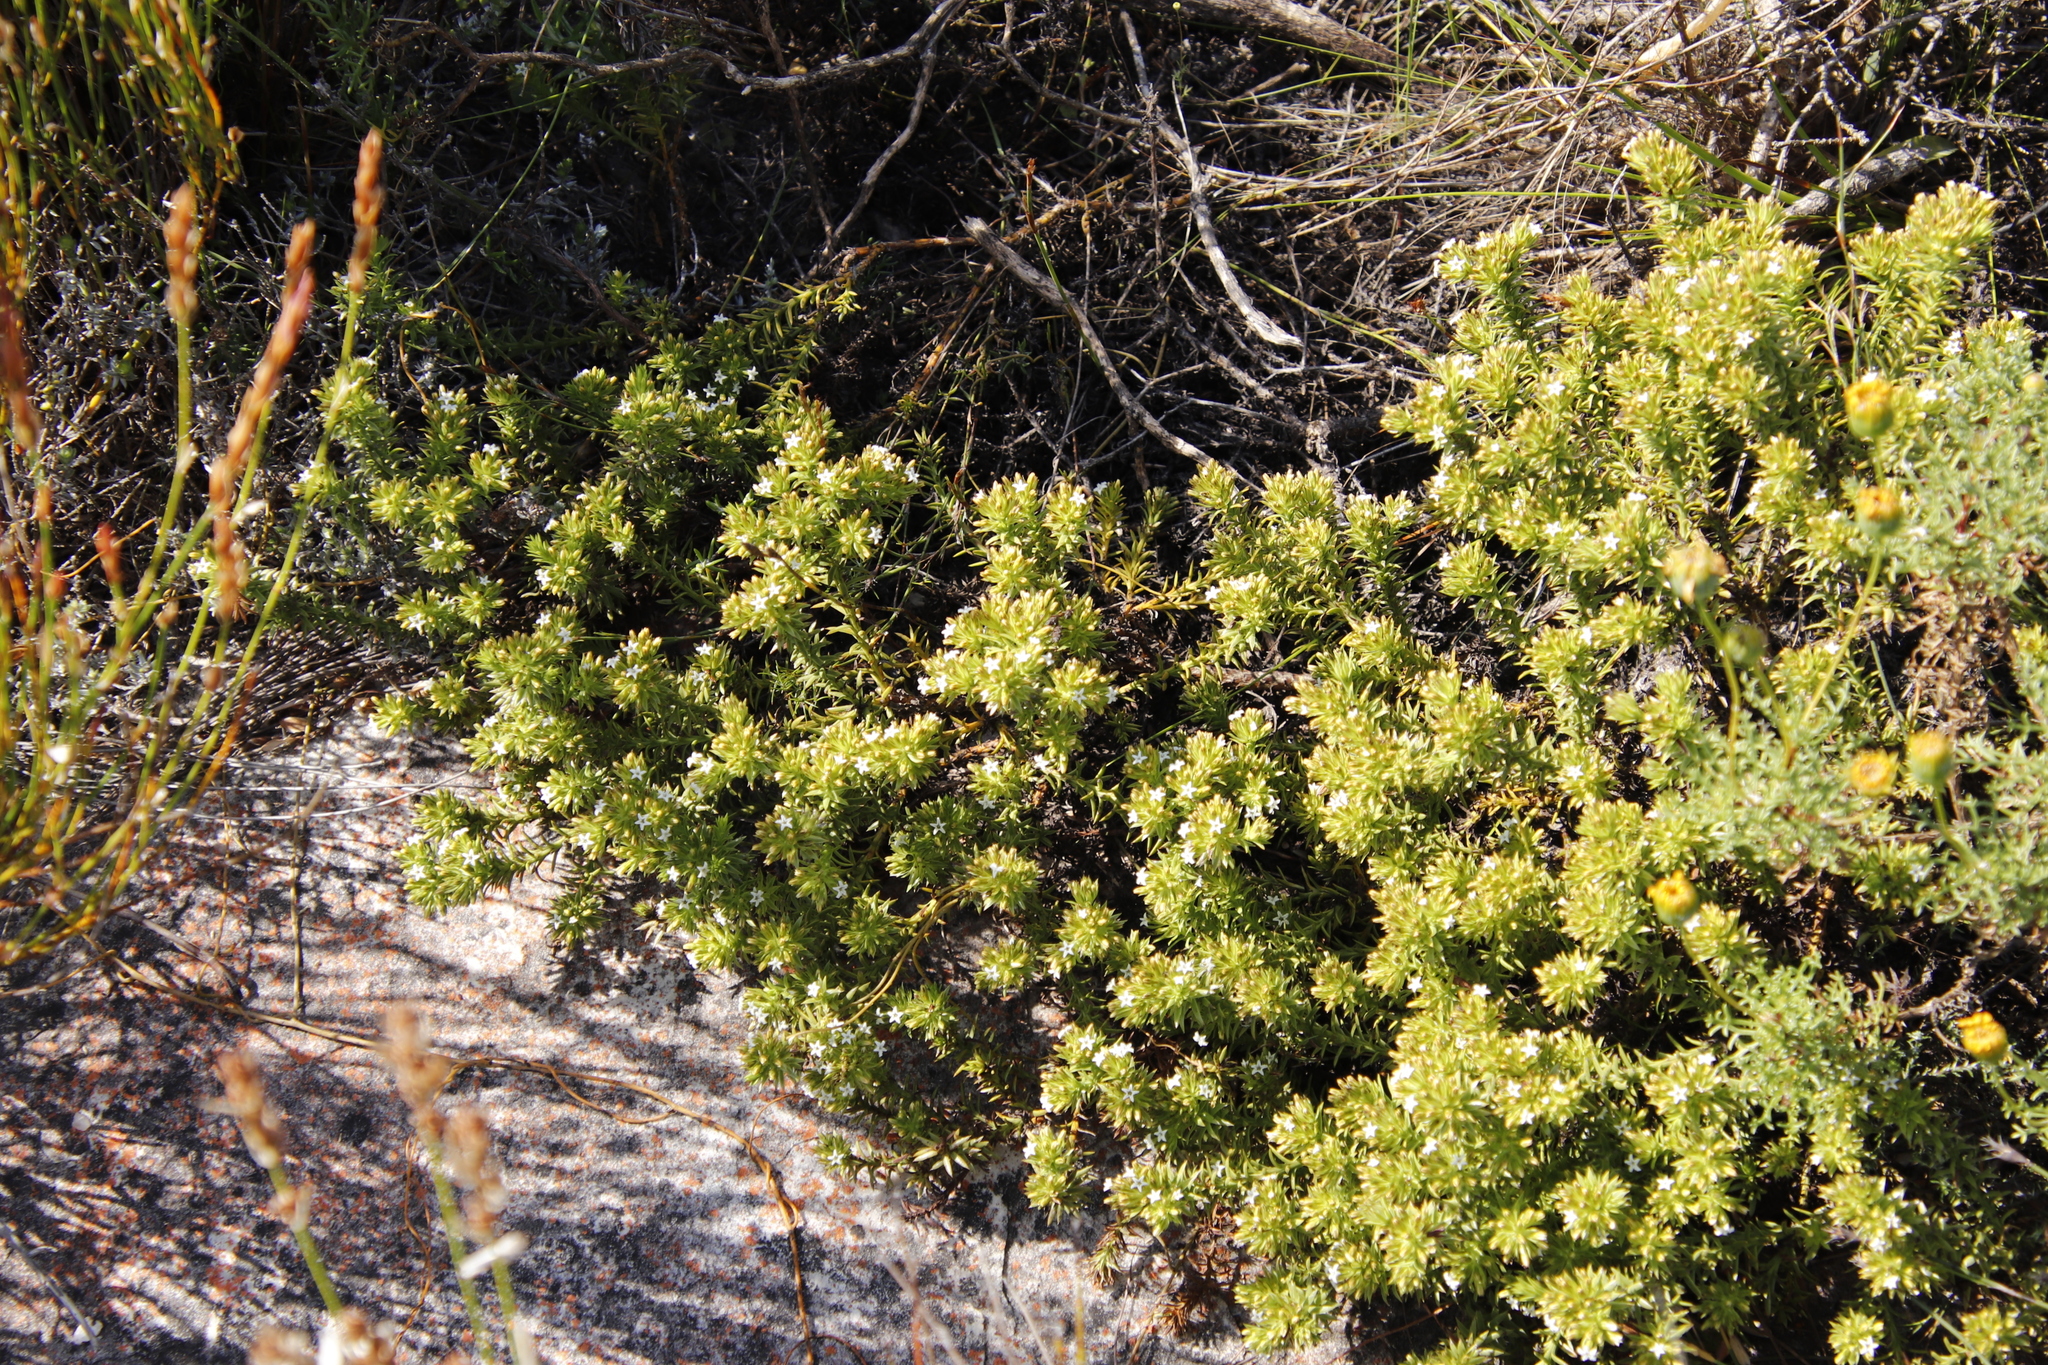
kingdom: Plantae
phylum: Tracheophyta
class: Magnoliopsida
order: Santalales
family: Thesiaceae
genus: Thesium
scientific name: Thesium viridifolium
